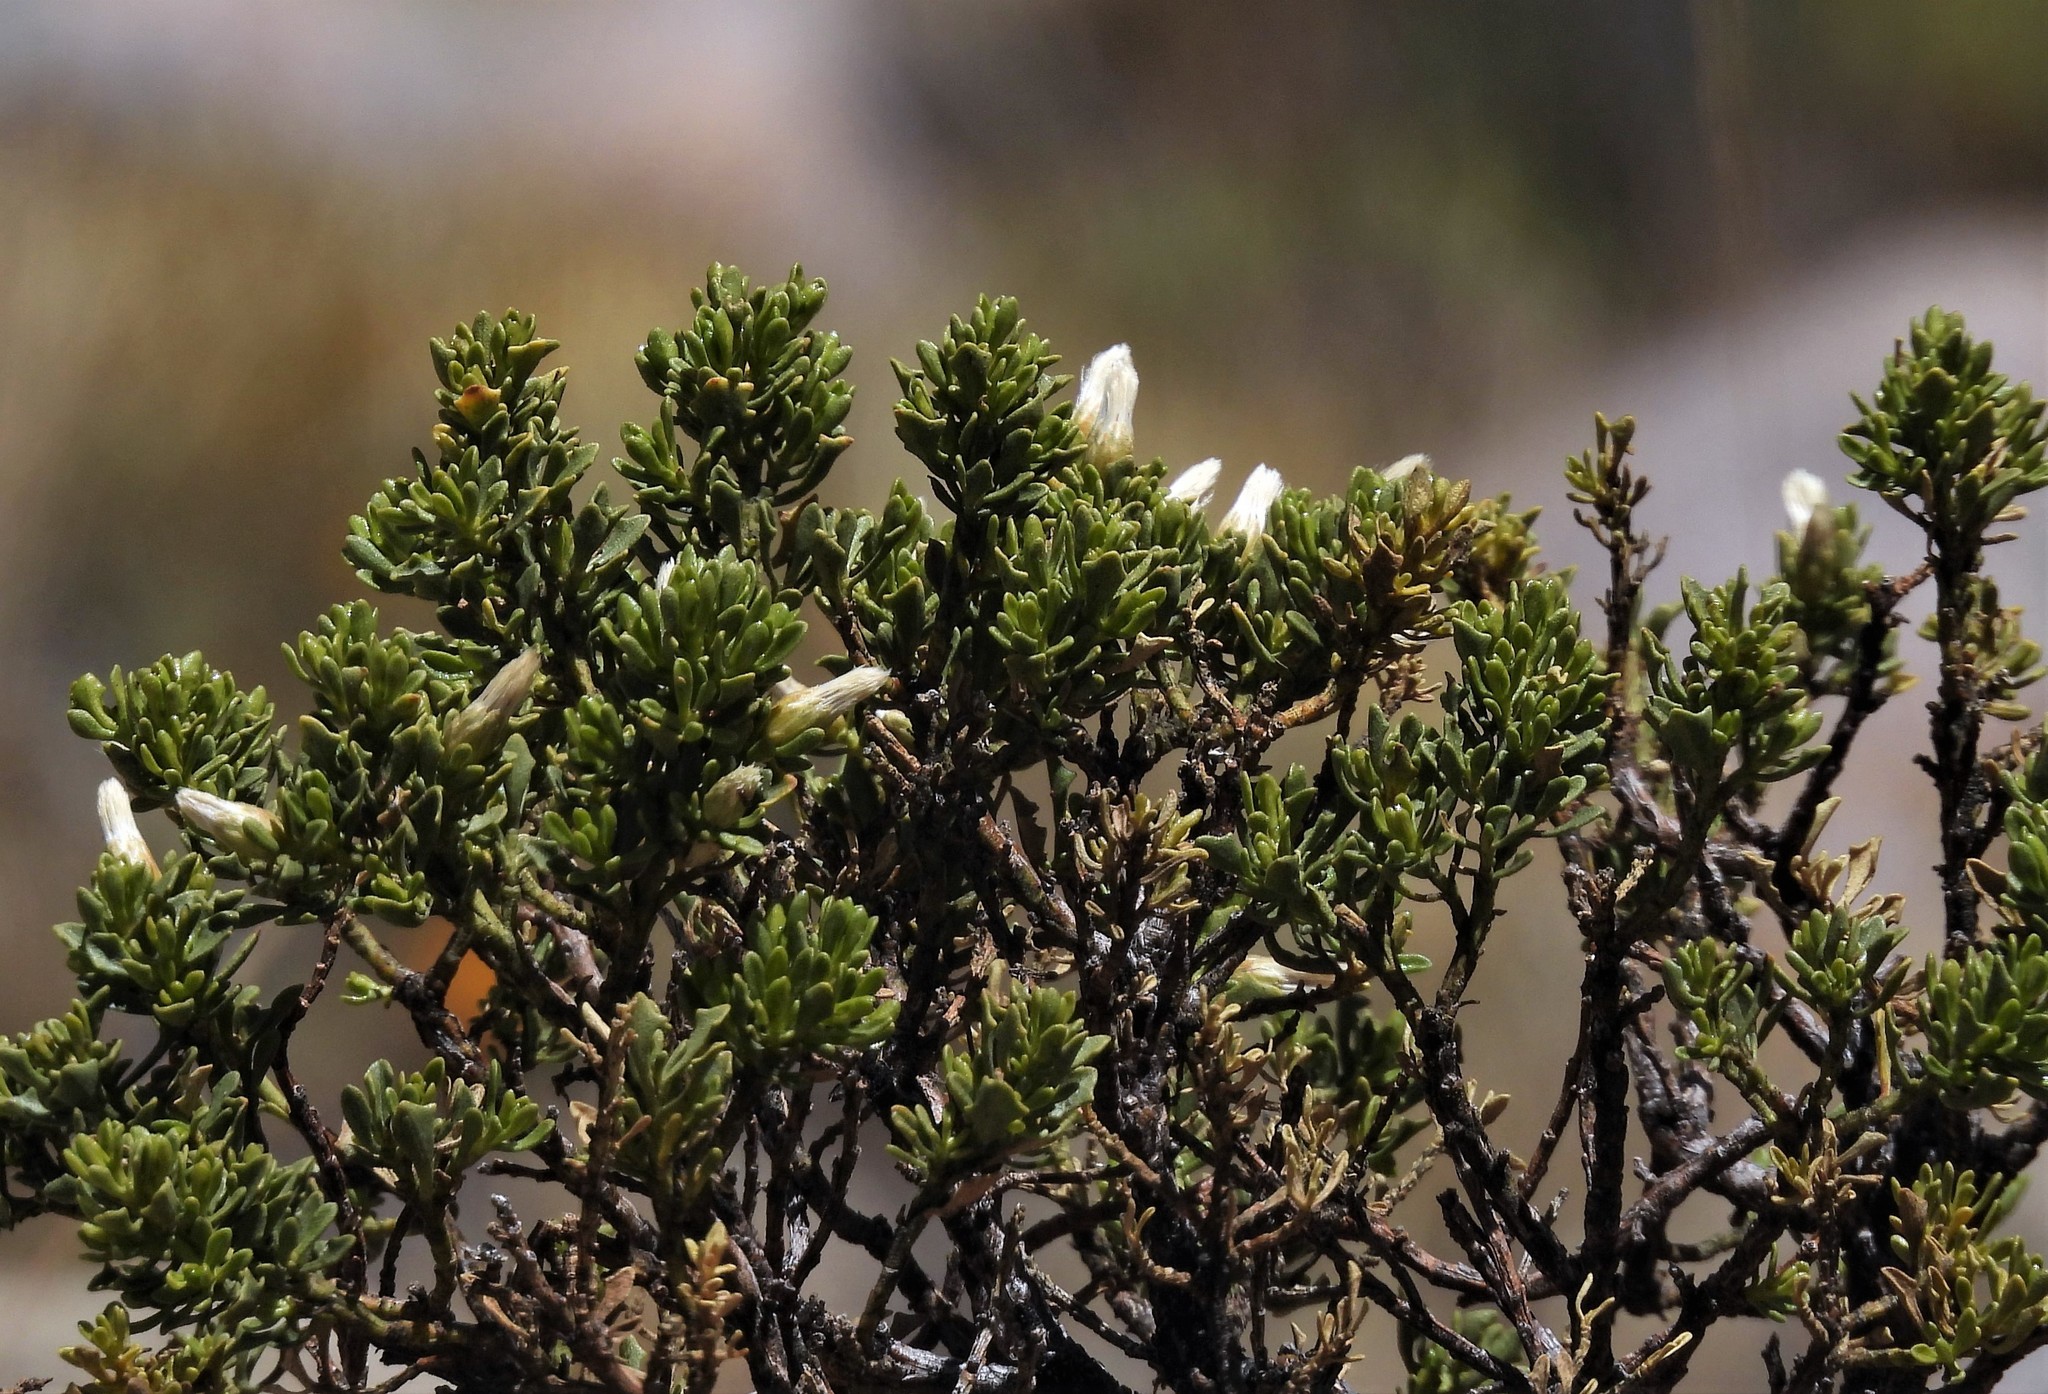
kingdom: Plantae
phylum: Tracheophyta
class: Magnoliopsida
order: Asterales
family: Asteraceae
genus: Baccharis
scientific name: Baccharis tola
